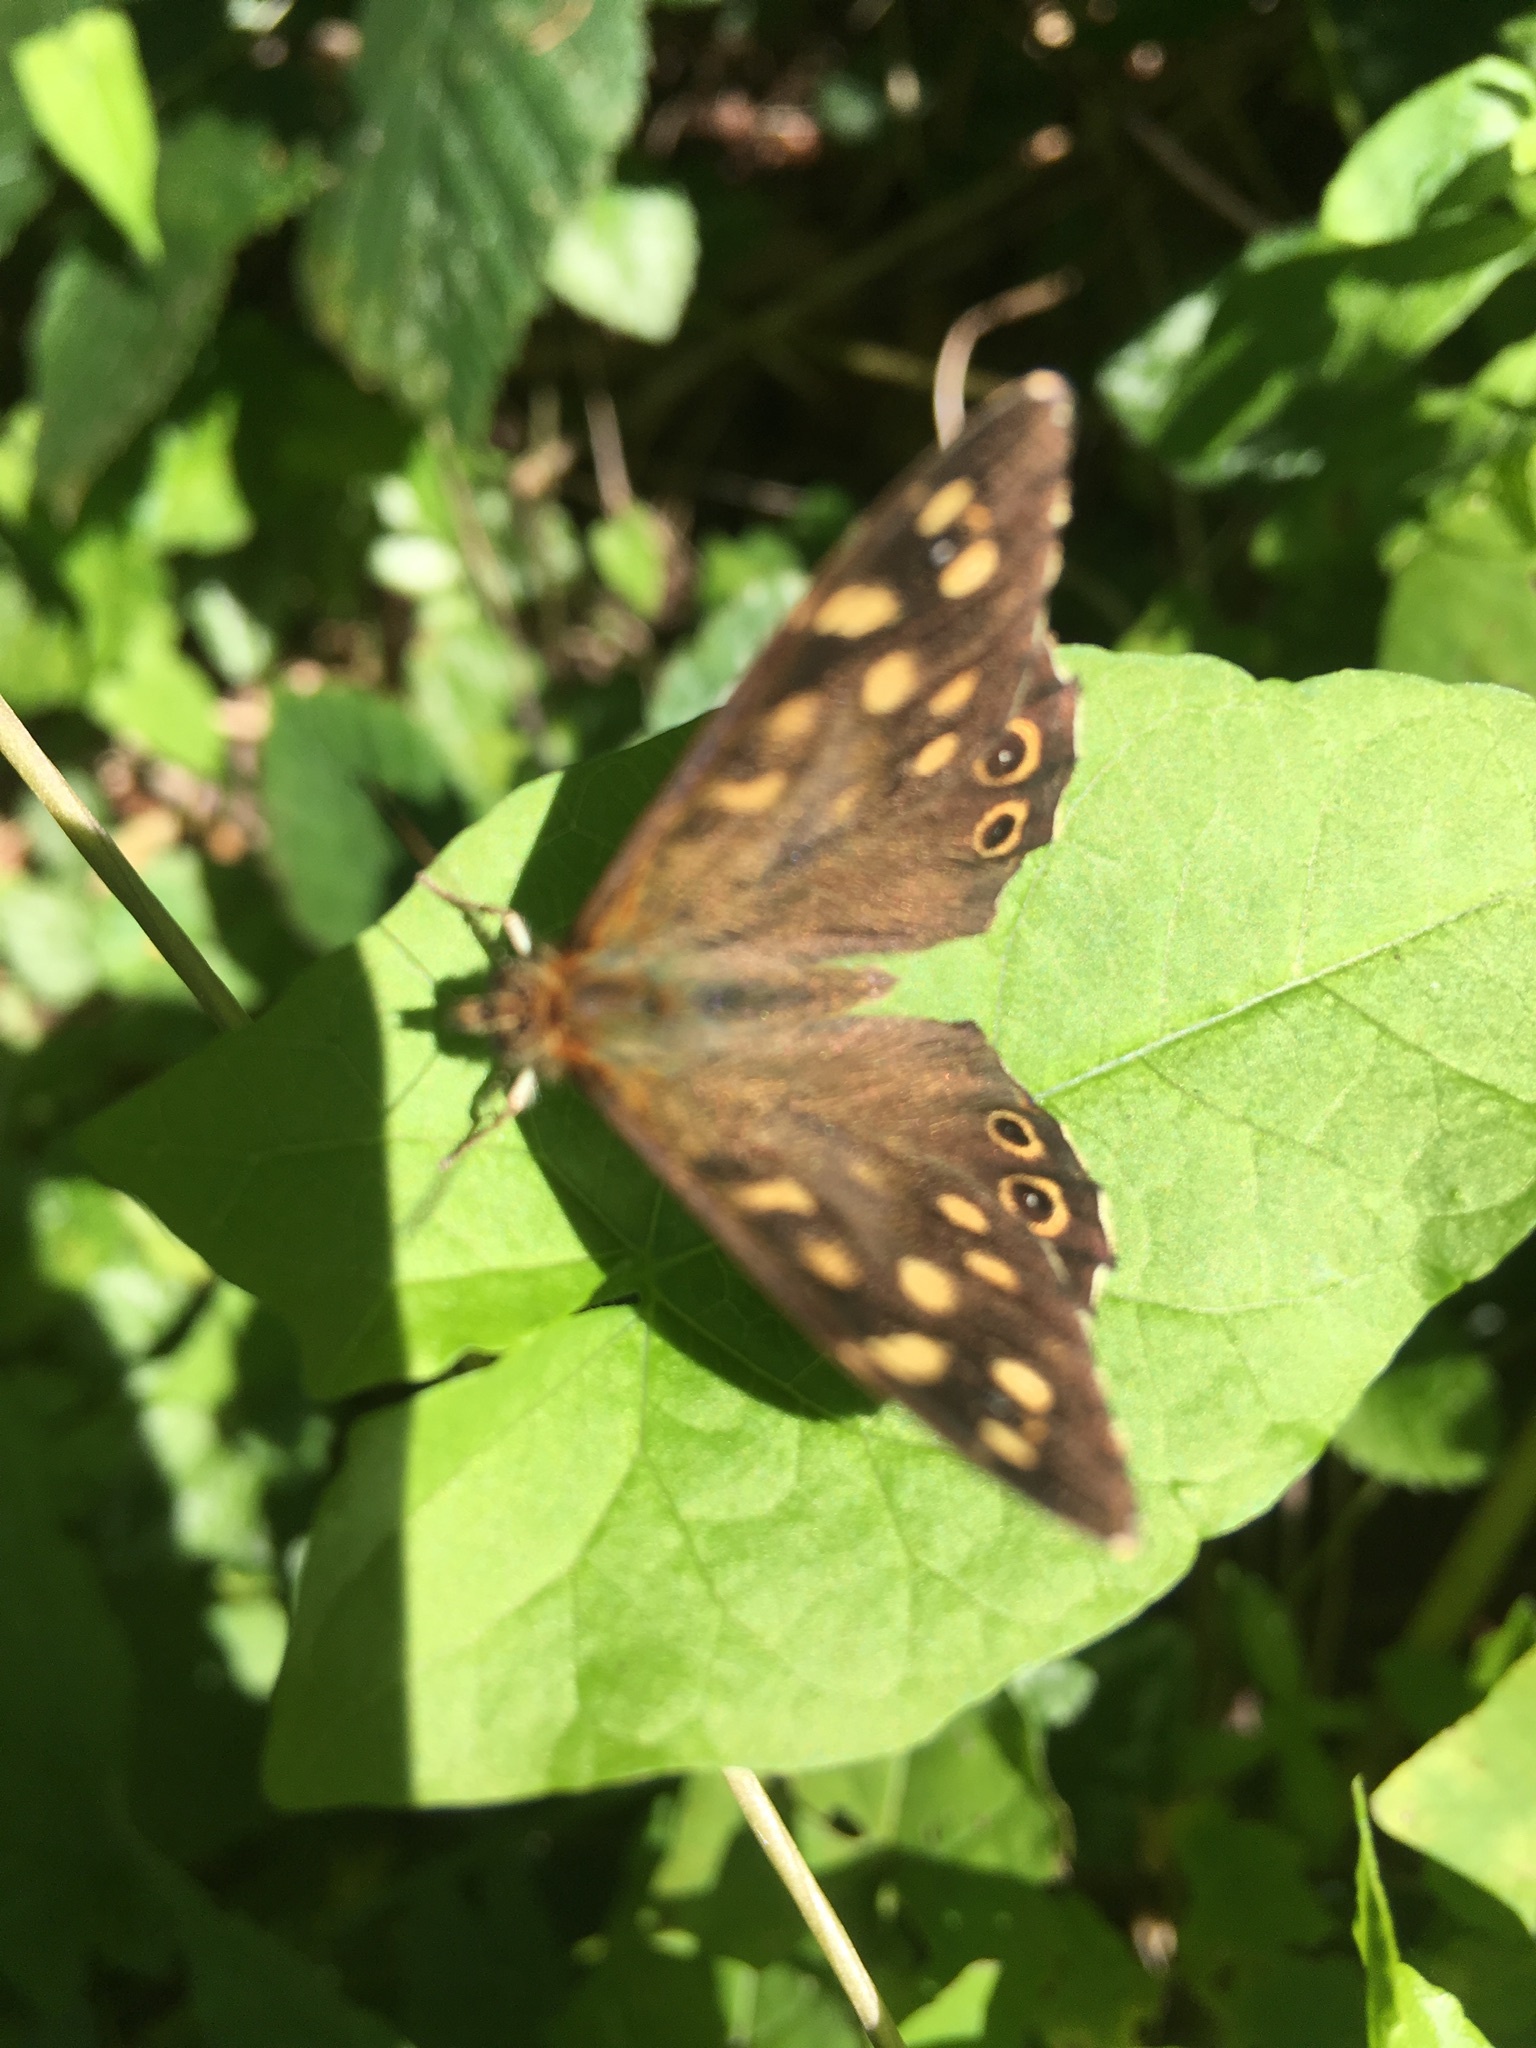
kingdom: Animalia
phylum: Arthropoda
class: Insecta
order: Lepidoptera
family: Nymphalidae
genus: Pararge
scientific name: Pararge aegeria
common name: Speckled wood
